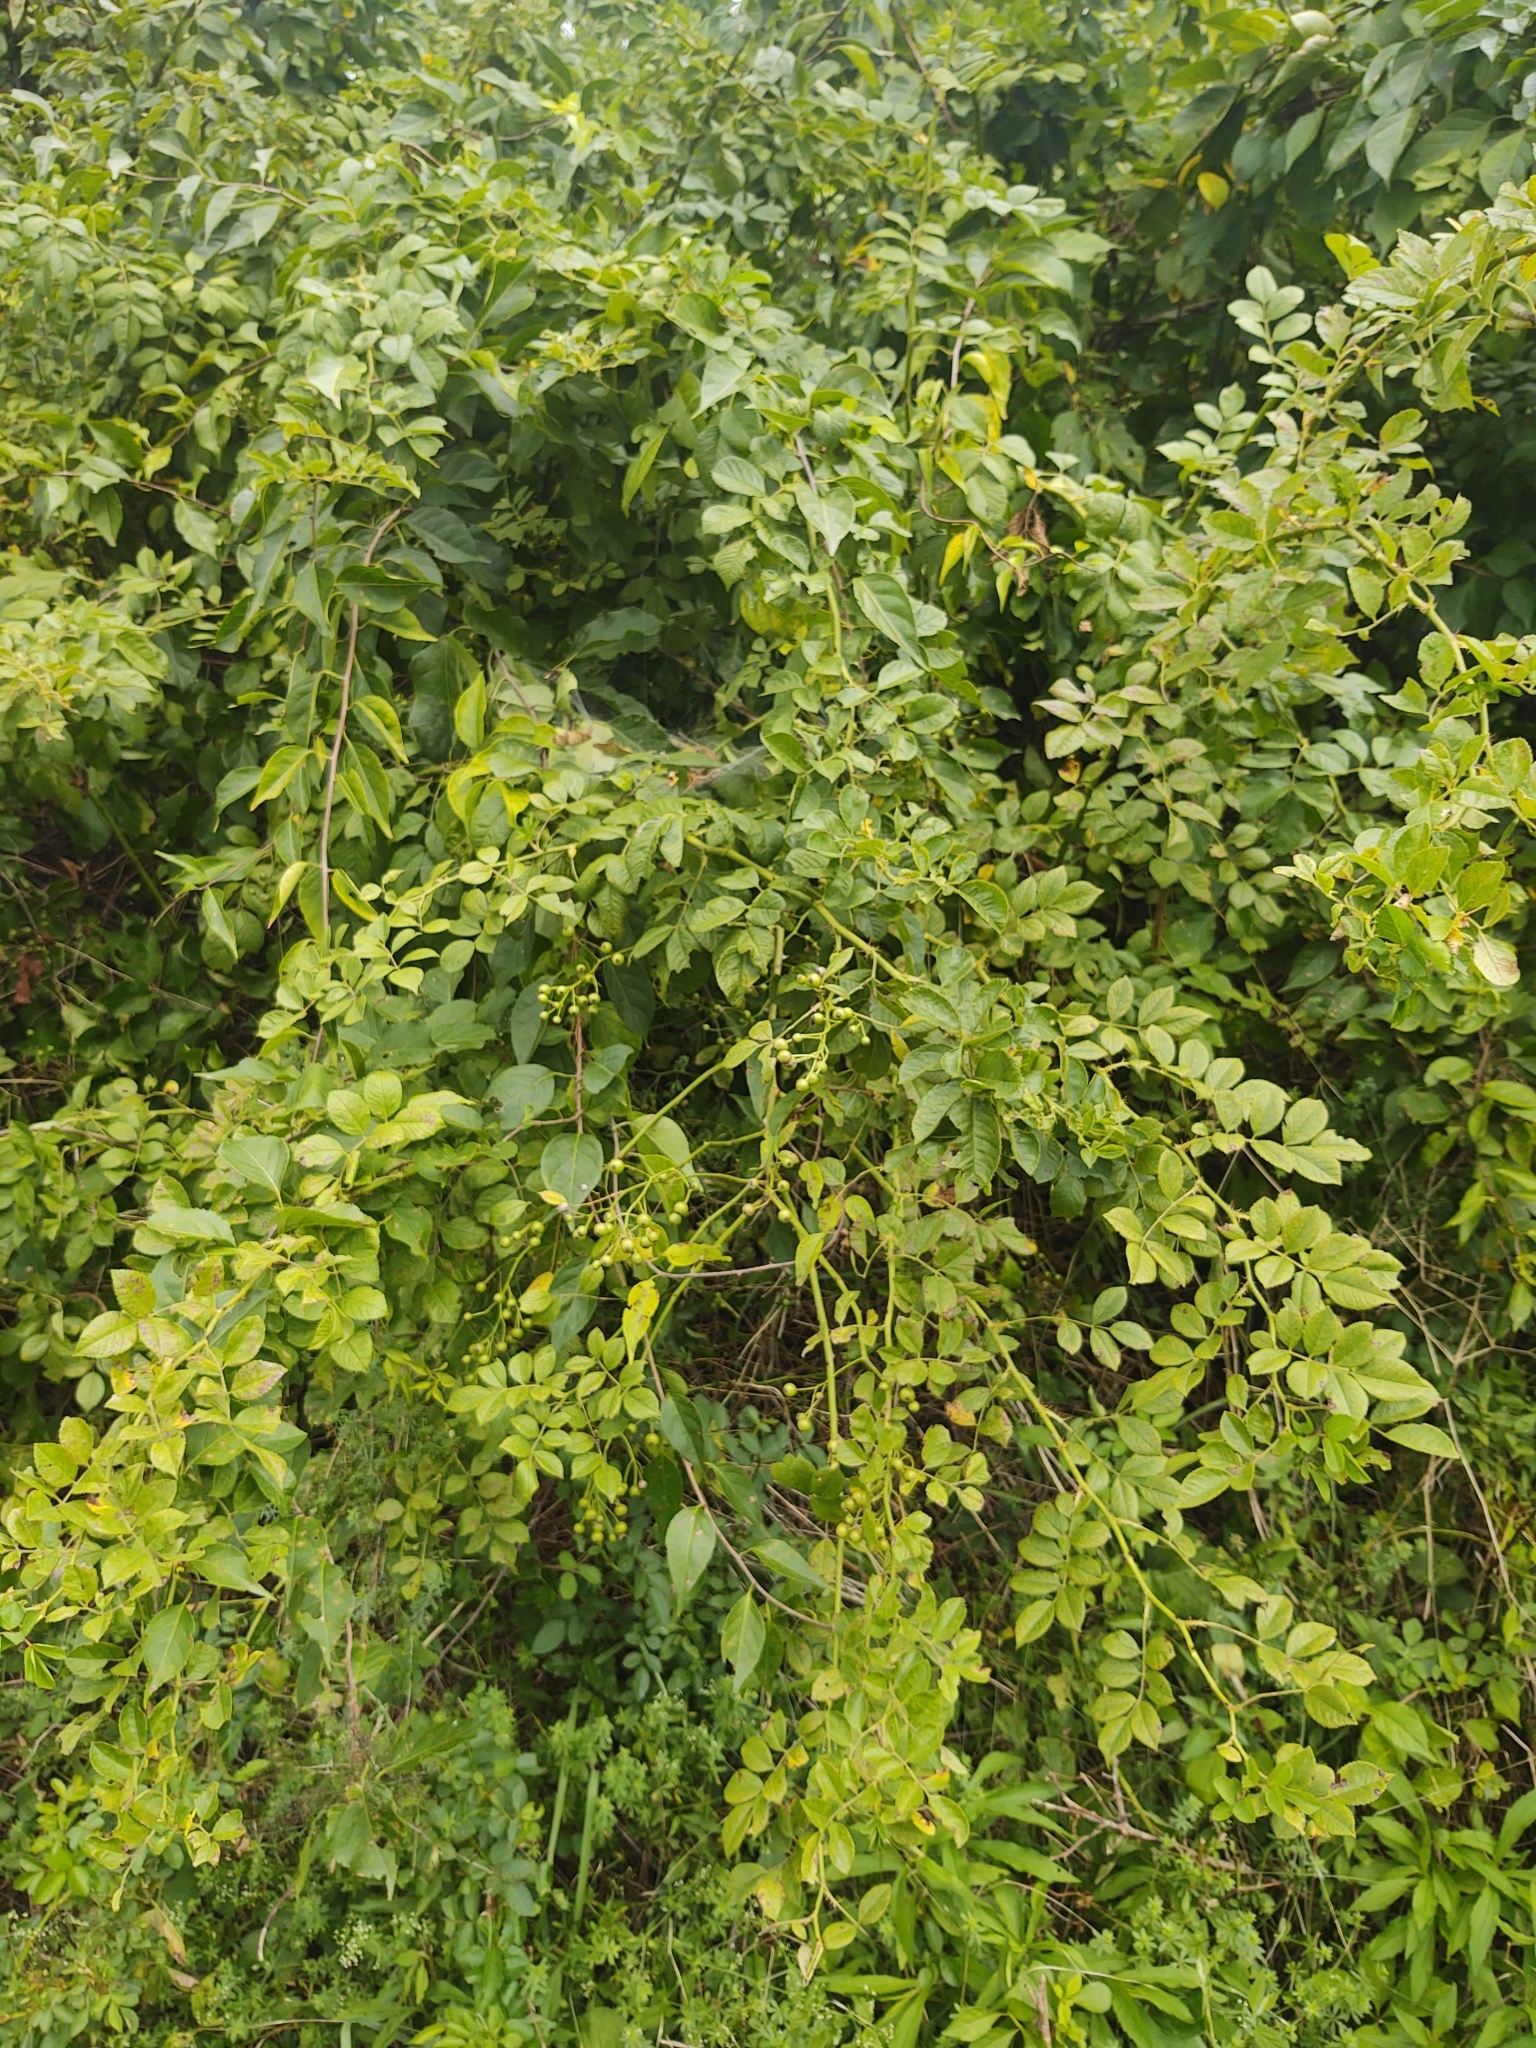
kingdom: Plantae
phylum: Tracheophyta
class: Magnoliopsida
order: Rosales
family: Rosaceae
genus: Rosa
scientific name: Rosa multiflora
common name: Multiflora rose
